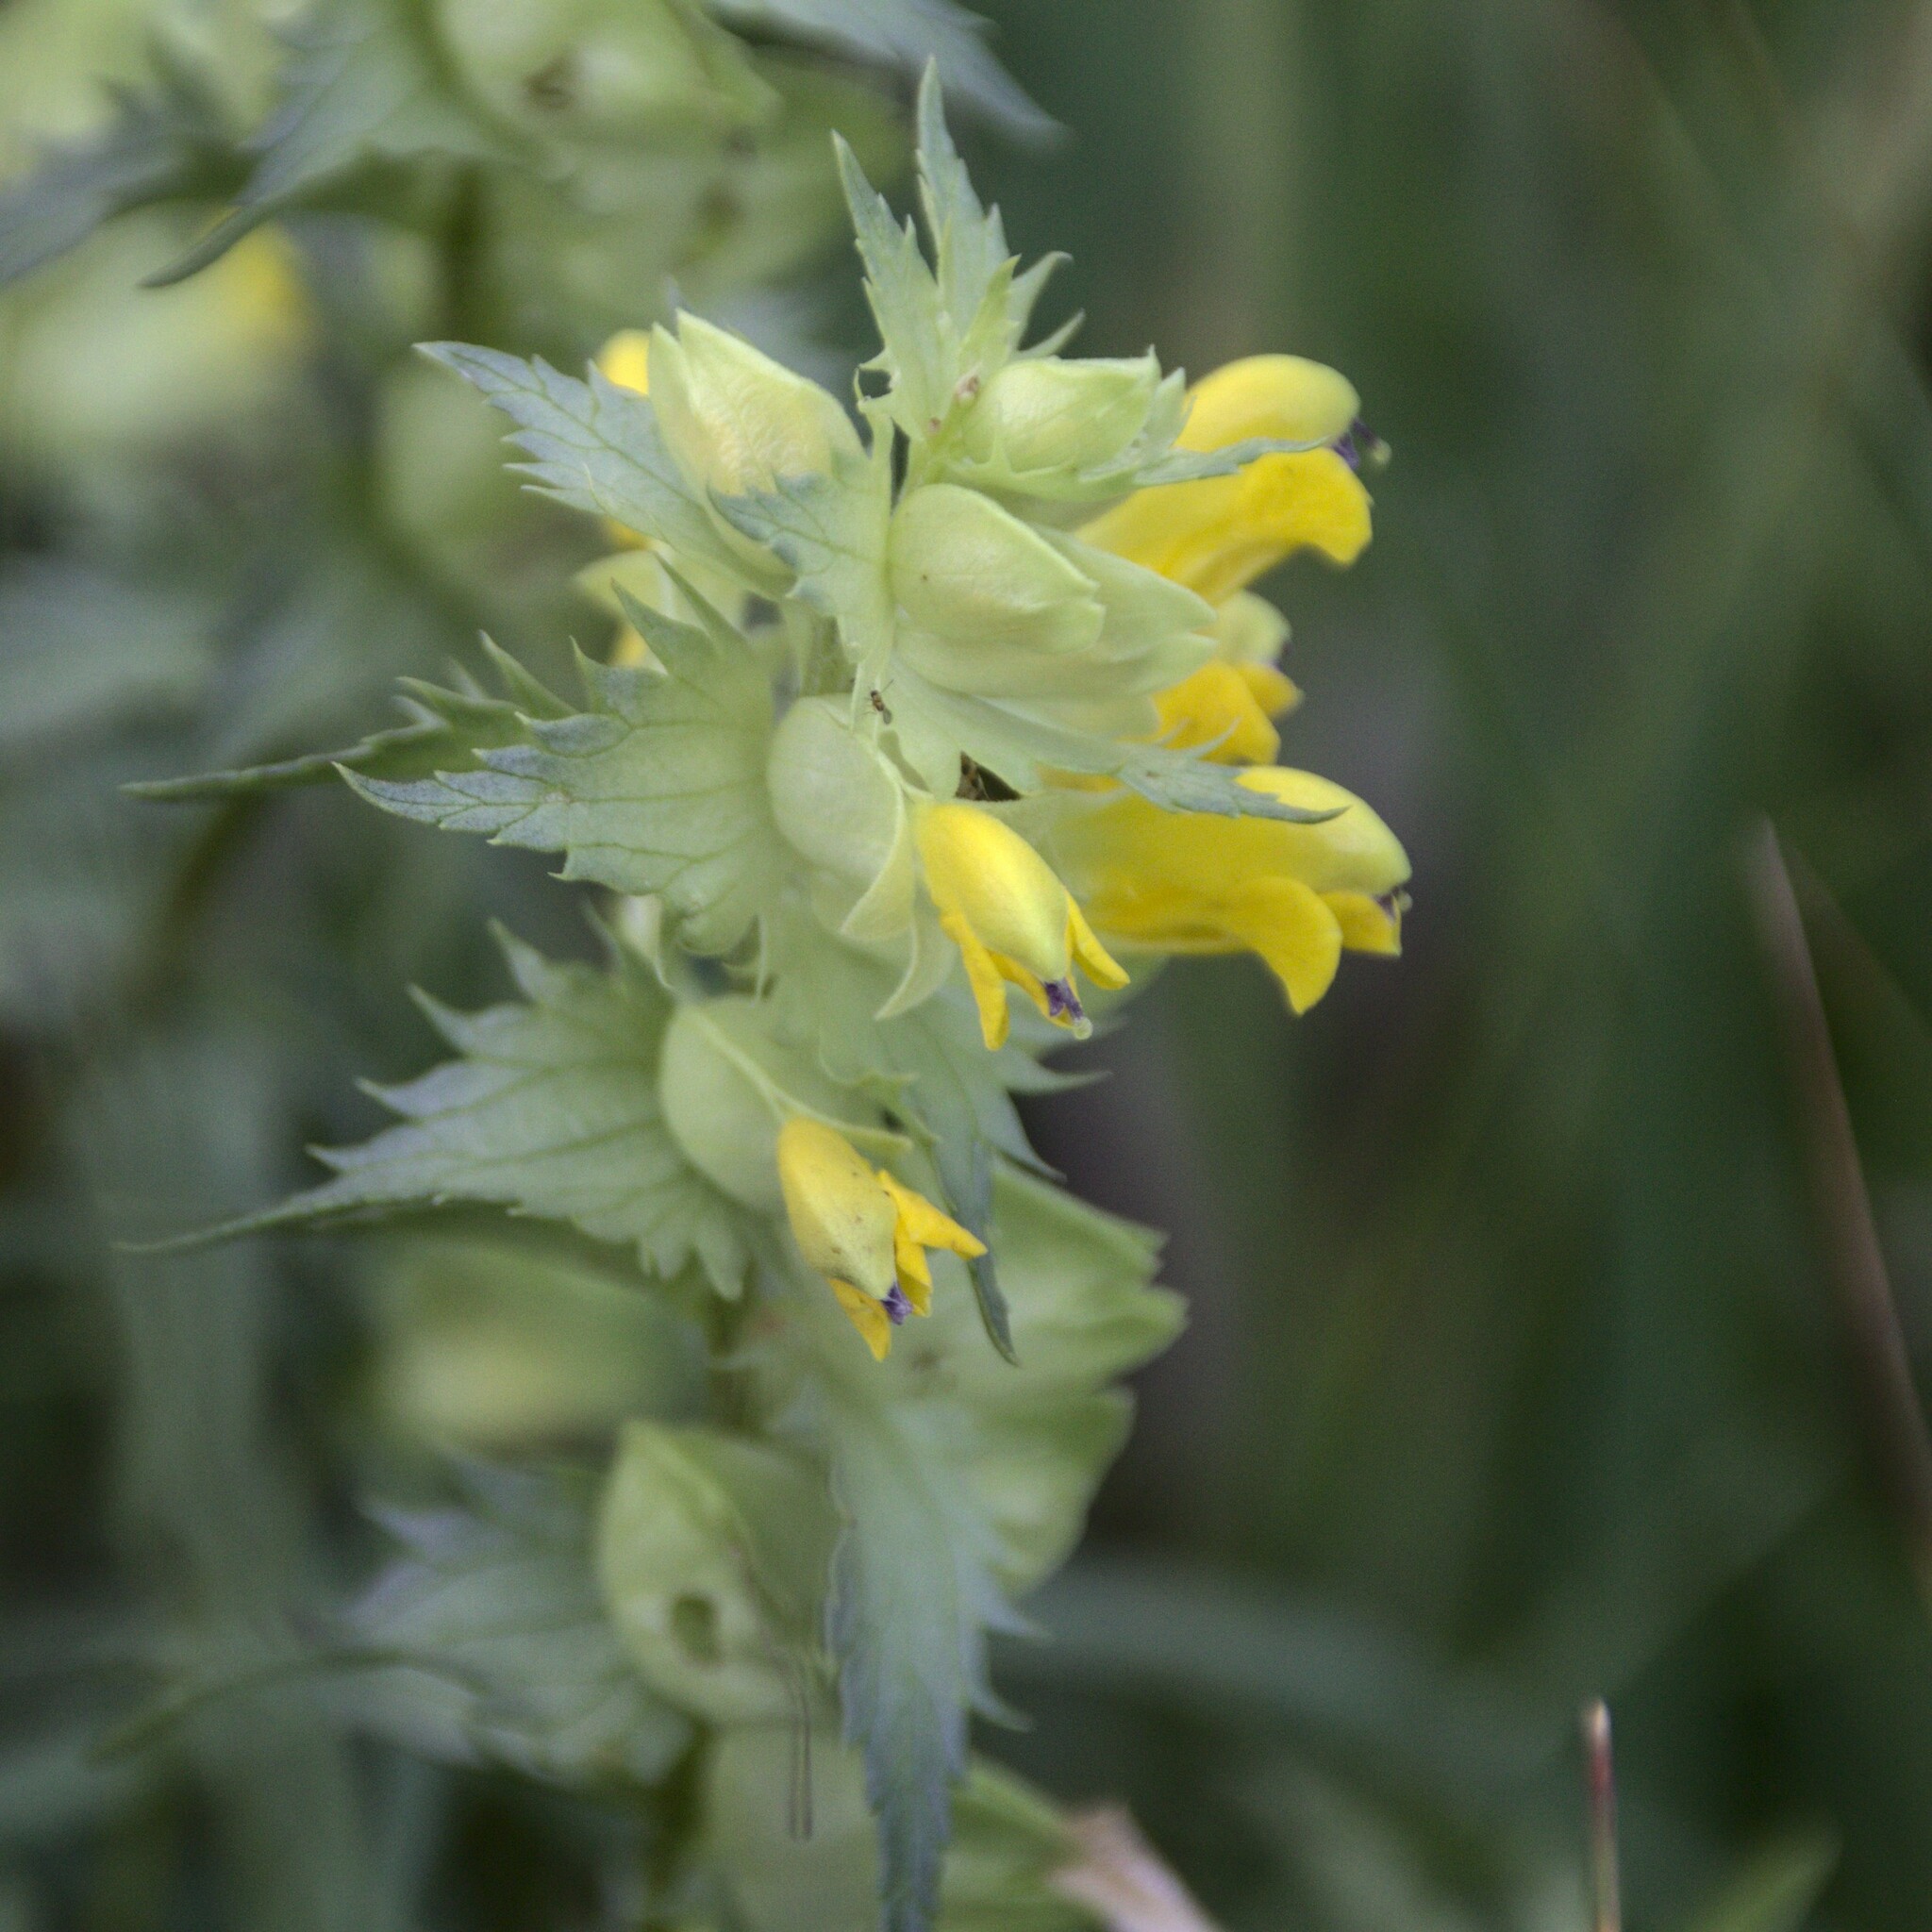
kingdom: Plantae
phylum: Tracheophyta
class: Magnoliopsida
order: Lamiales
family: Orobanchaceae
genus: Rhinanthus
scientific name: Rhinanthus serotinus
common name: Late-flowering yellow rattle
